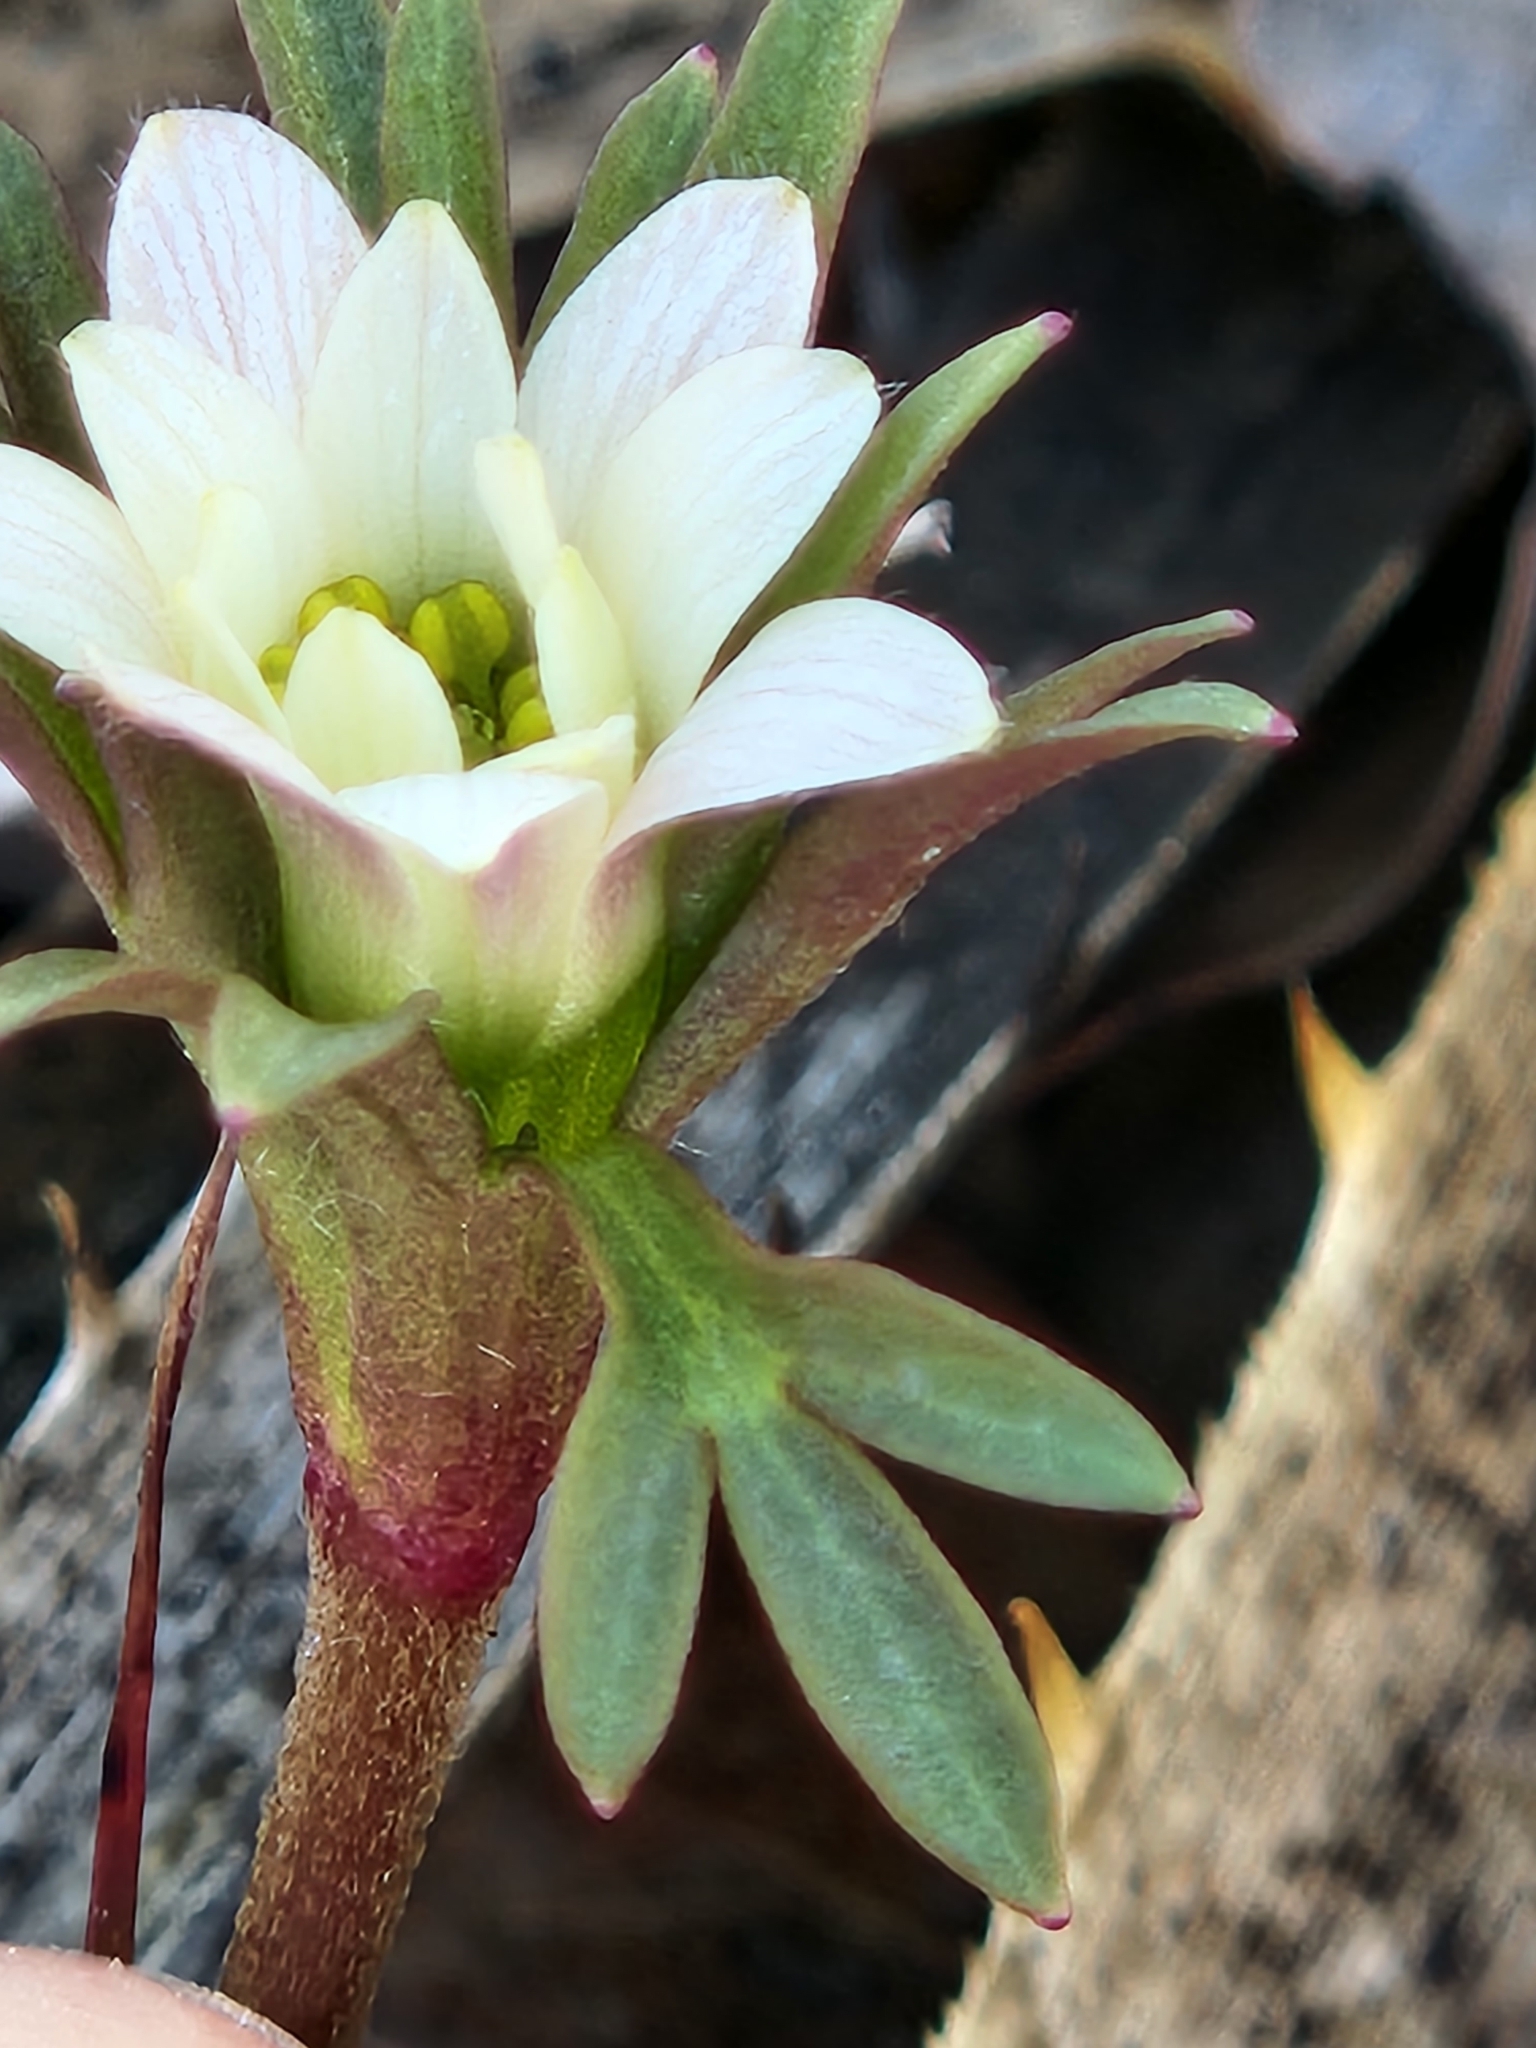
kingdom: Plantae
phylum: Tracheophyta
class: Magnoliopsida
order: Ranunculales
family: Ranunculaceae
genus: Anemone
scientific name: Anemone edwardsiana
